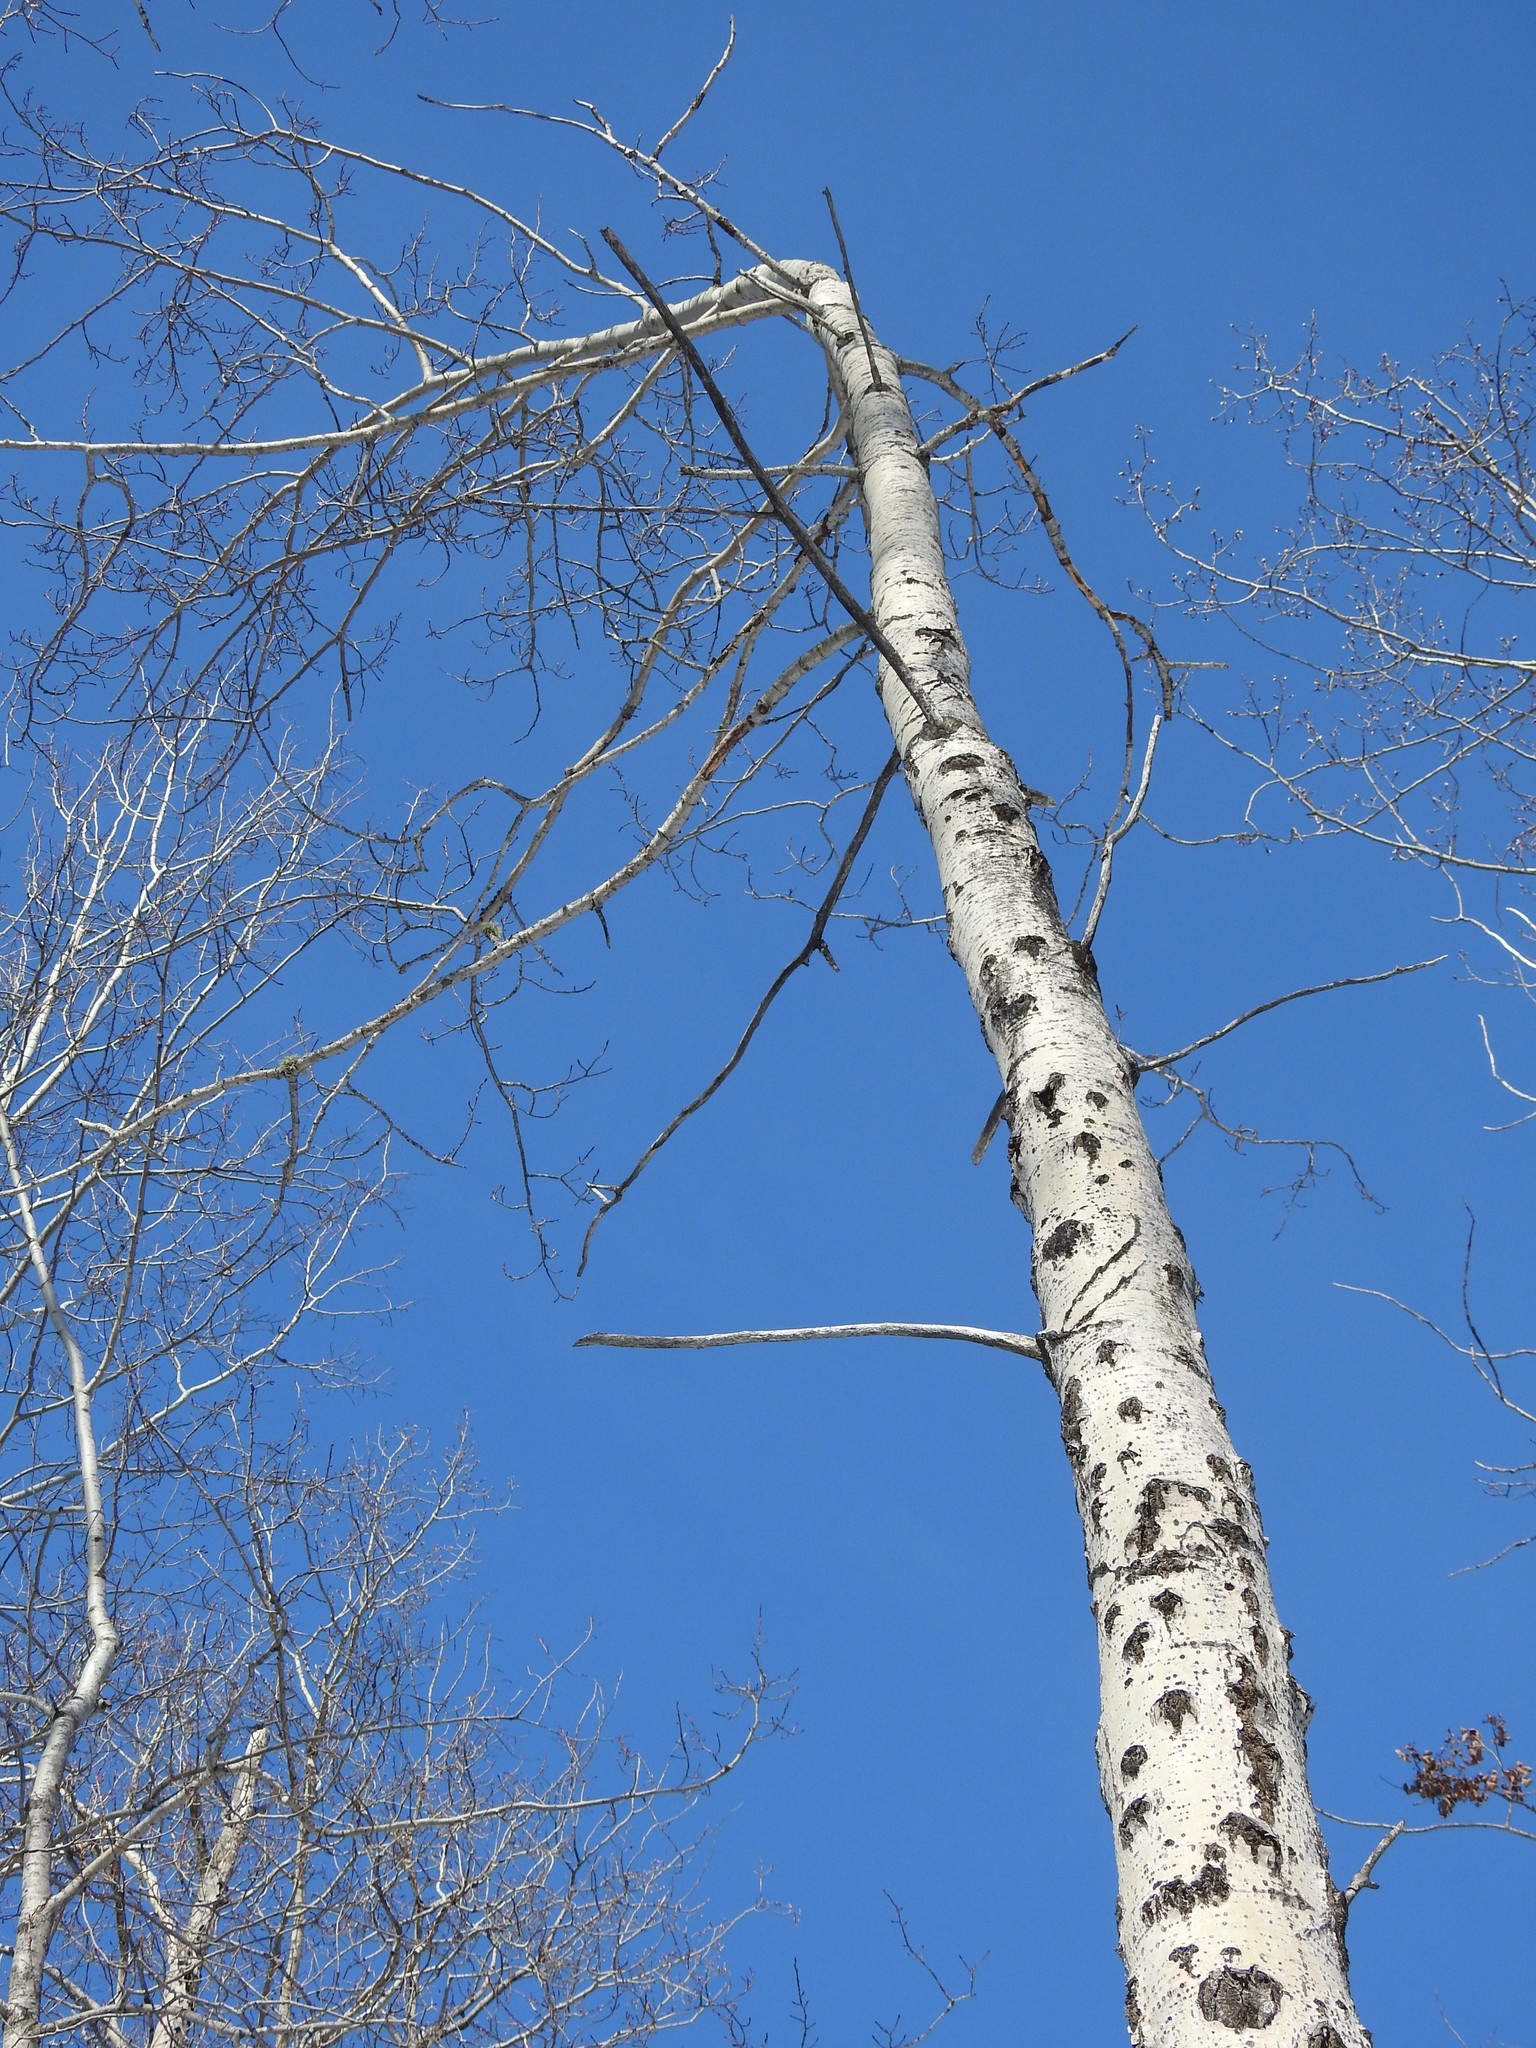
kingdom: Plantae
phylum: Tracheophyta
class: Magnoliopsida
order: Malpighiales
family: Salicaceae
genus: Populus
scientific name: Populus tremuloides
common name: Quaking aspen
